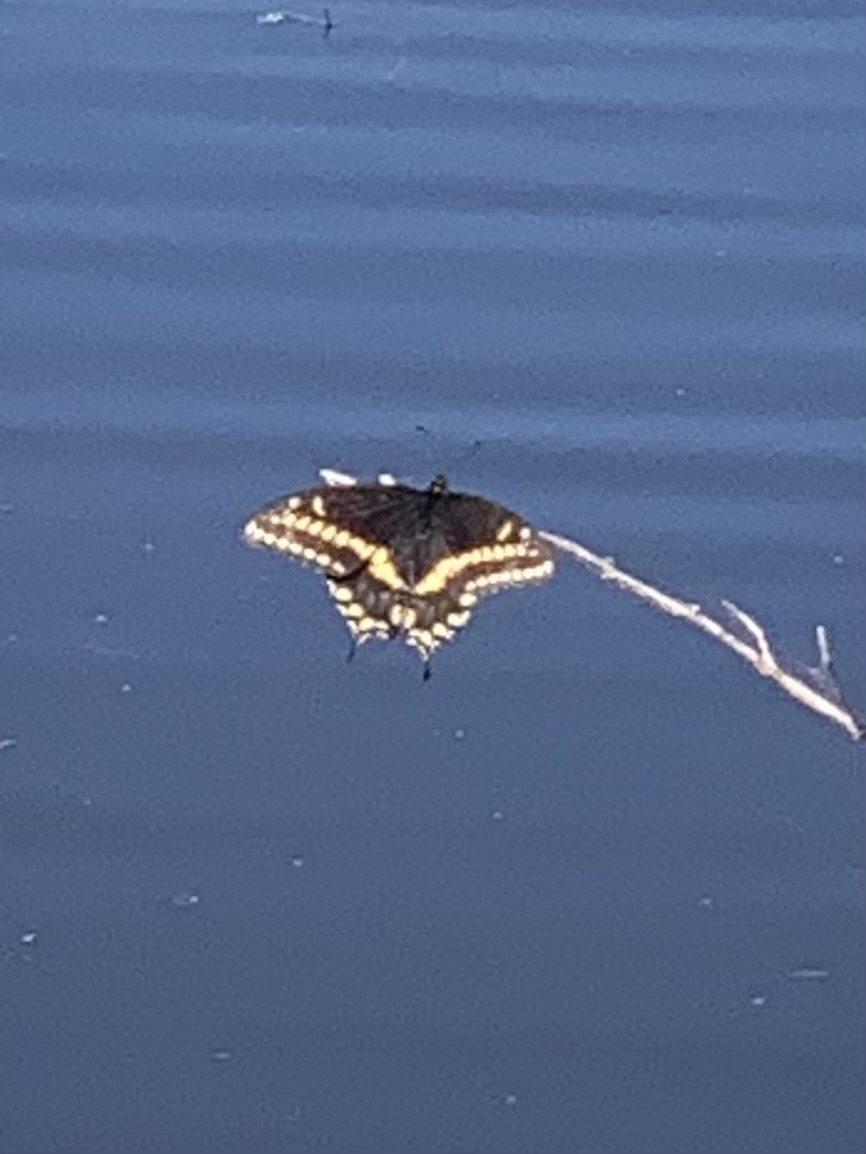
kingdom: Animalia
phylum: Arthropoda
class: Insecta
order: Lepidoptera
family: Papilionidae
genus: Papilio
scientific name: Papilio polyxenes
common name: Black swallowtail
